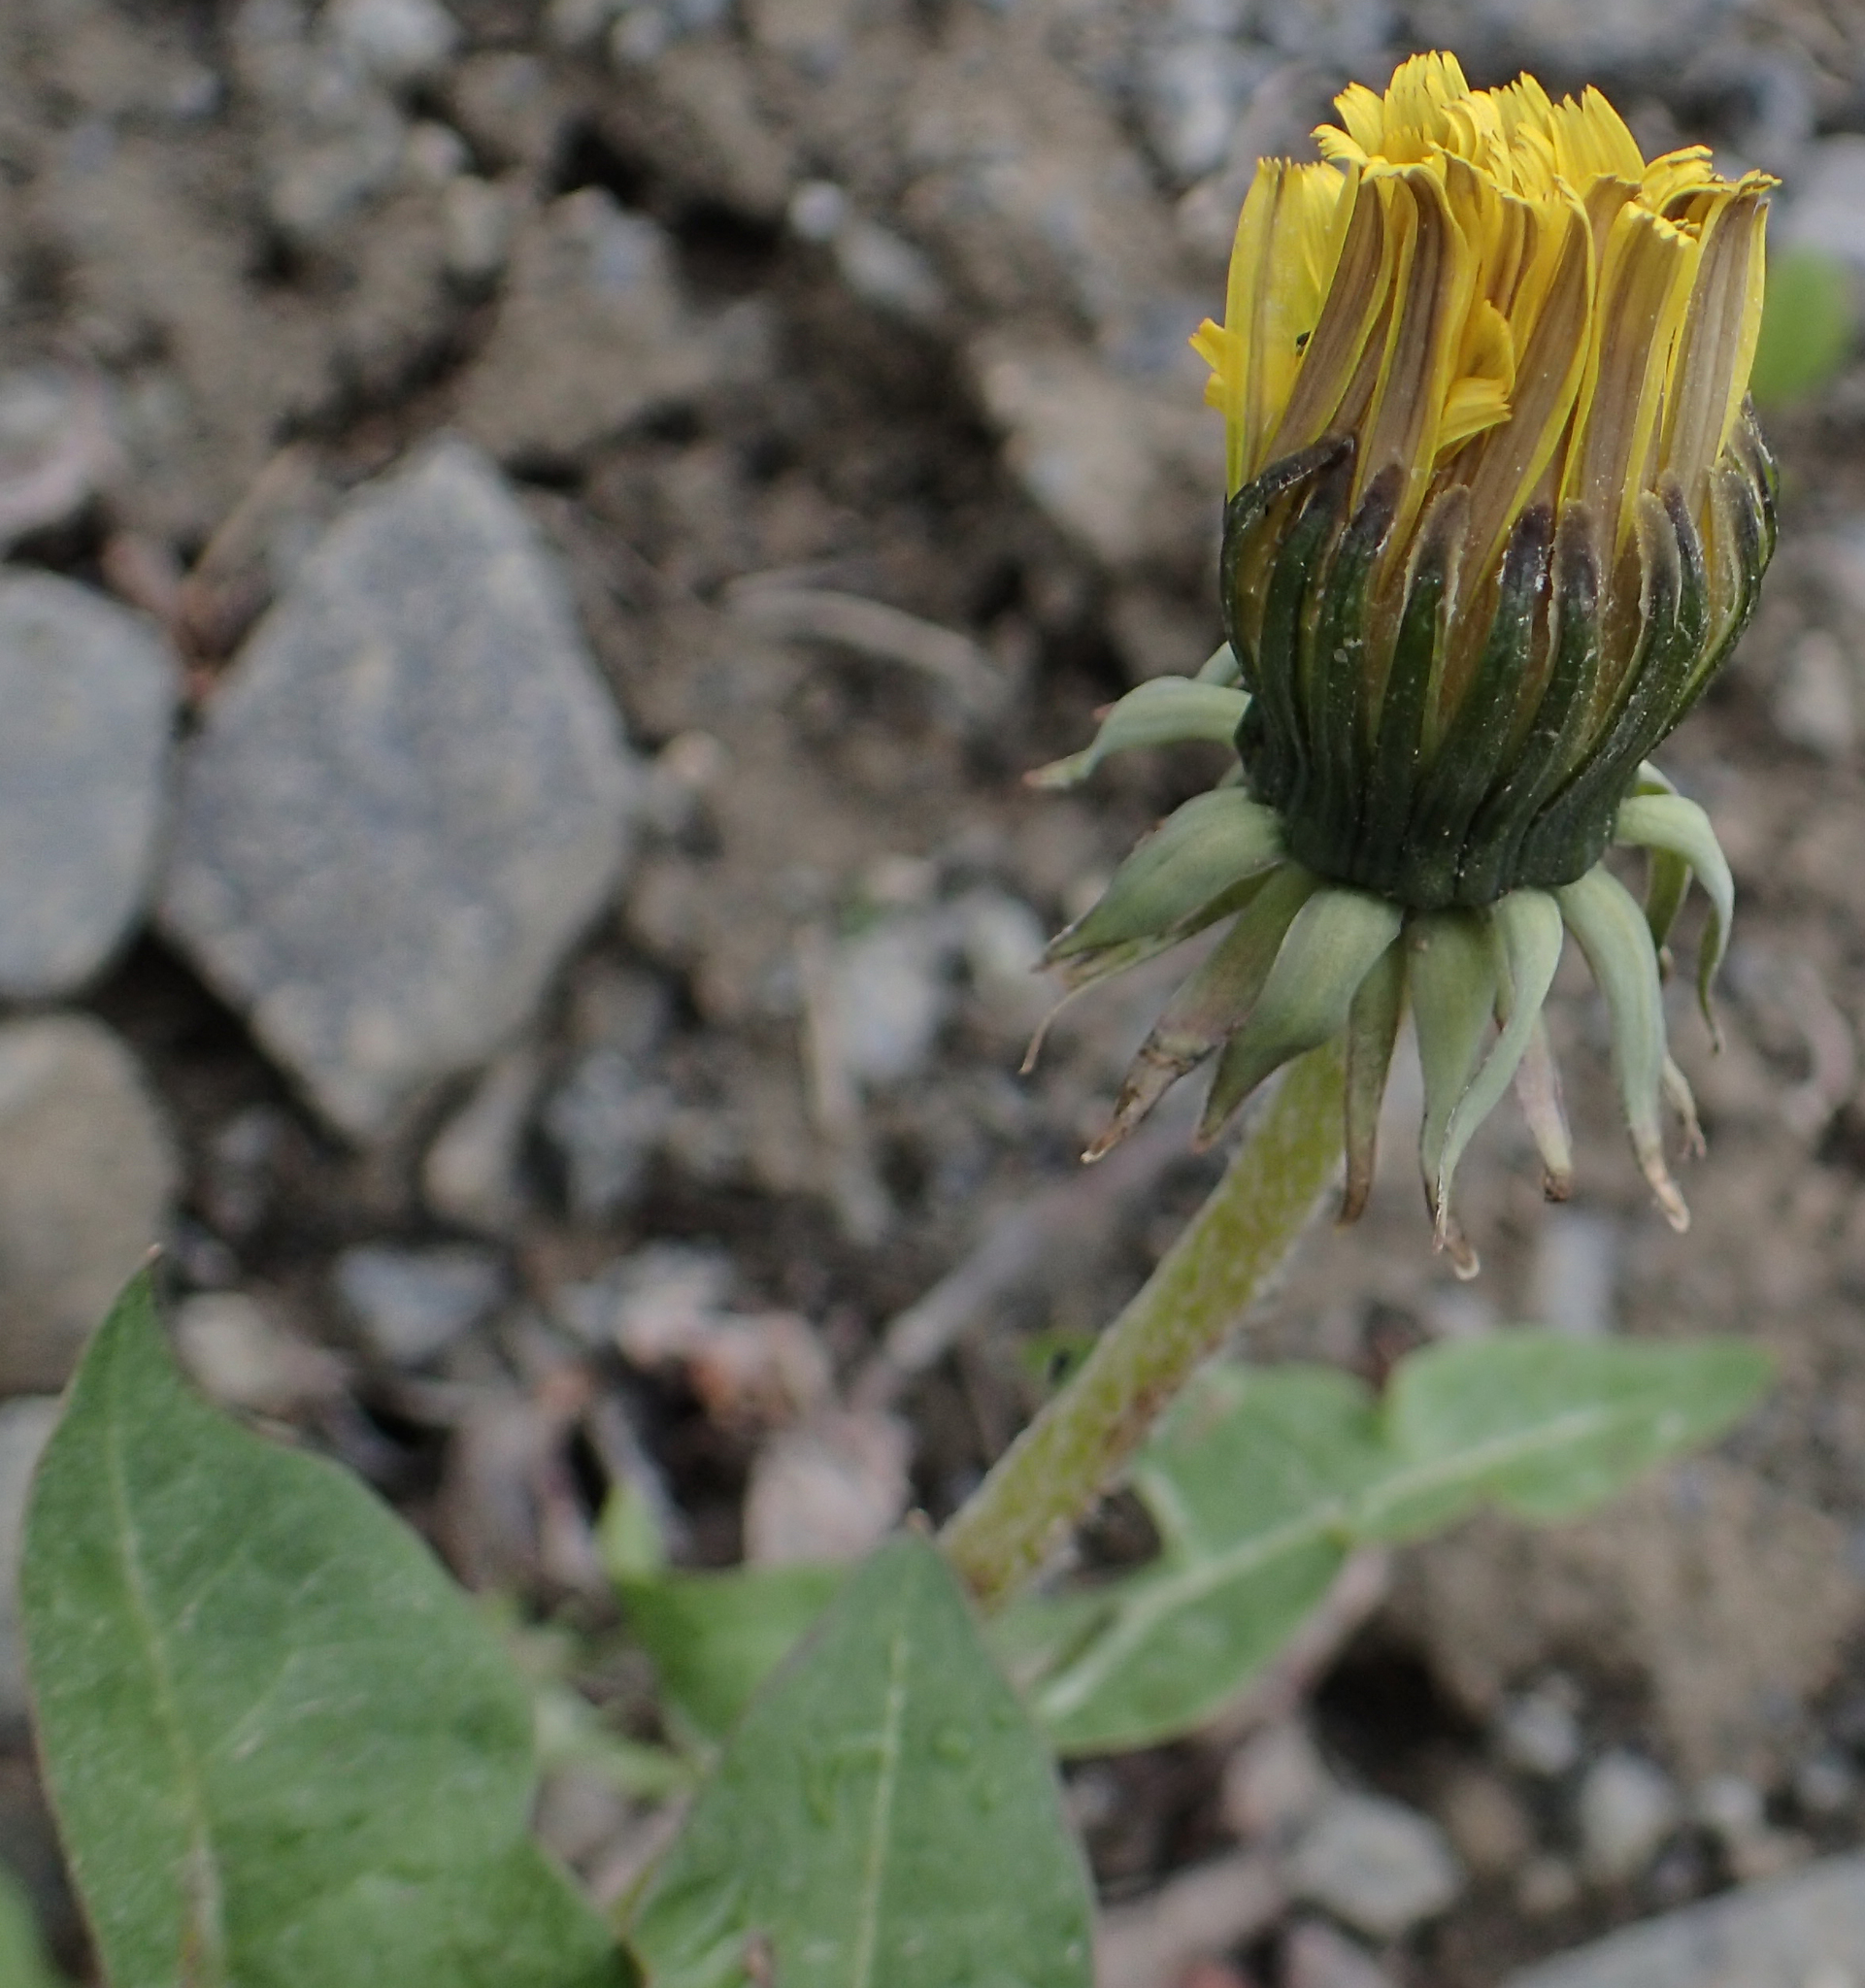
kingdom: Plantae
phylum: Tracheophyta
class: Magnoliopsida
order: Asterales
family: Asteraceae
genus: Taraxacum
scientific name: Taraxacum officinale
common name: Common dandelion
